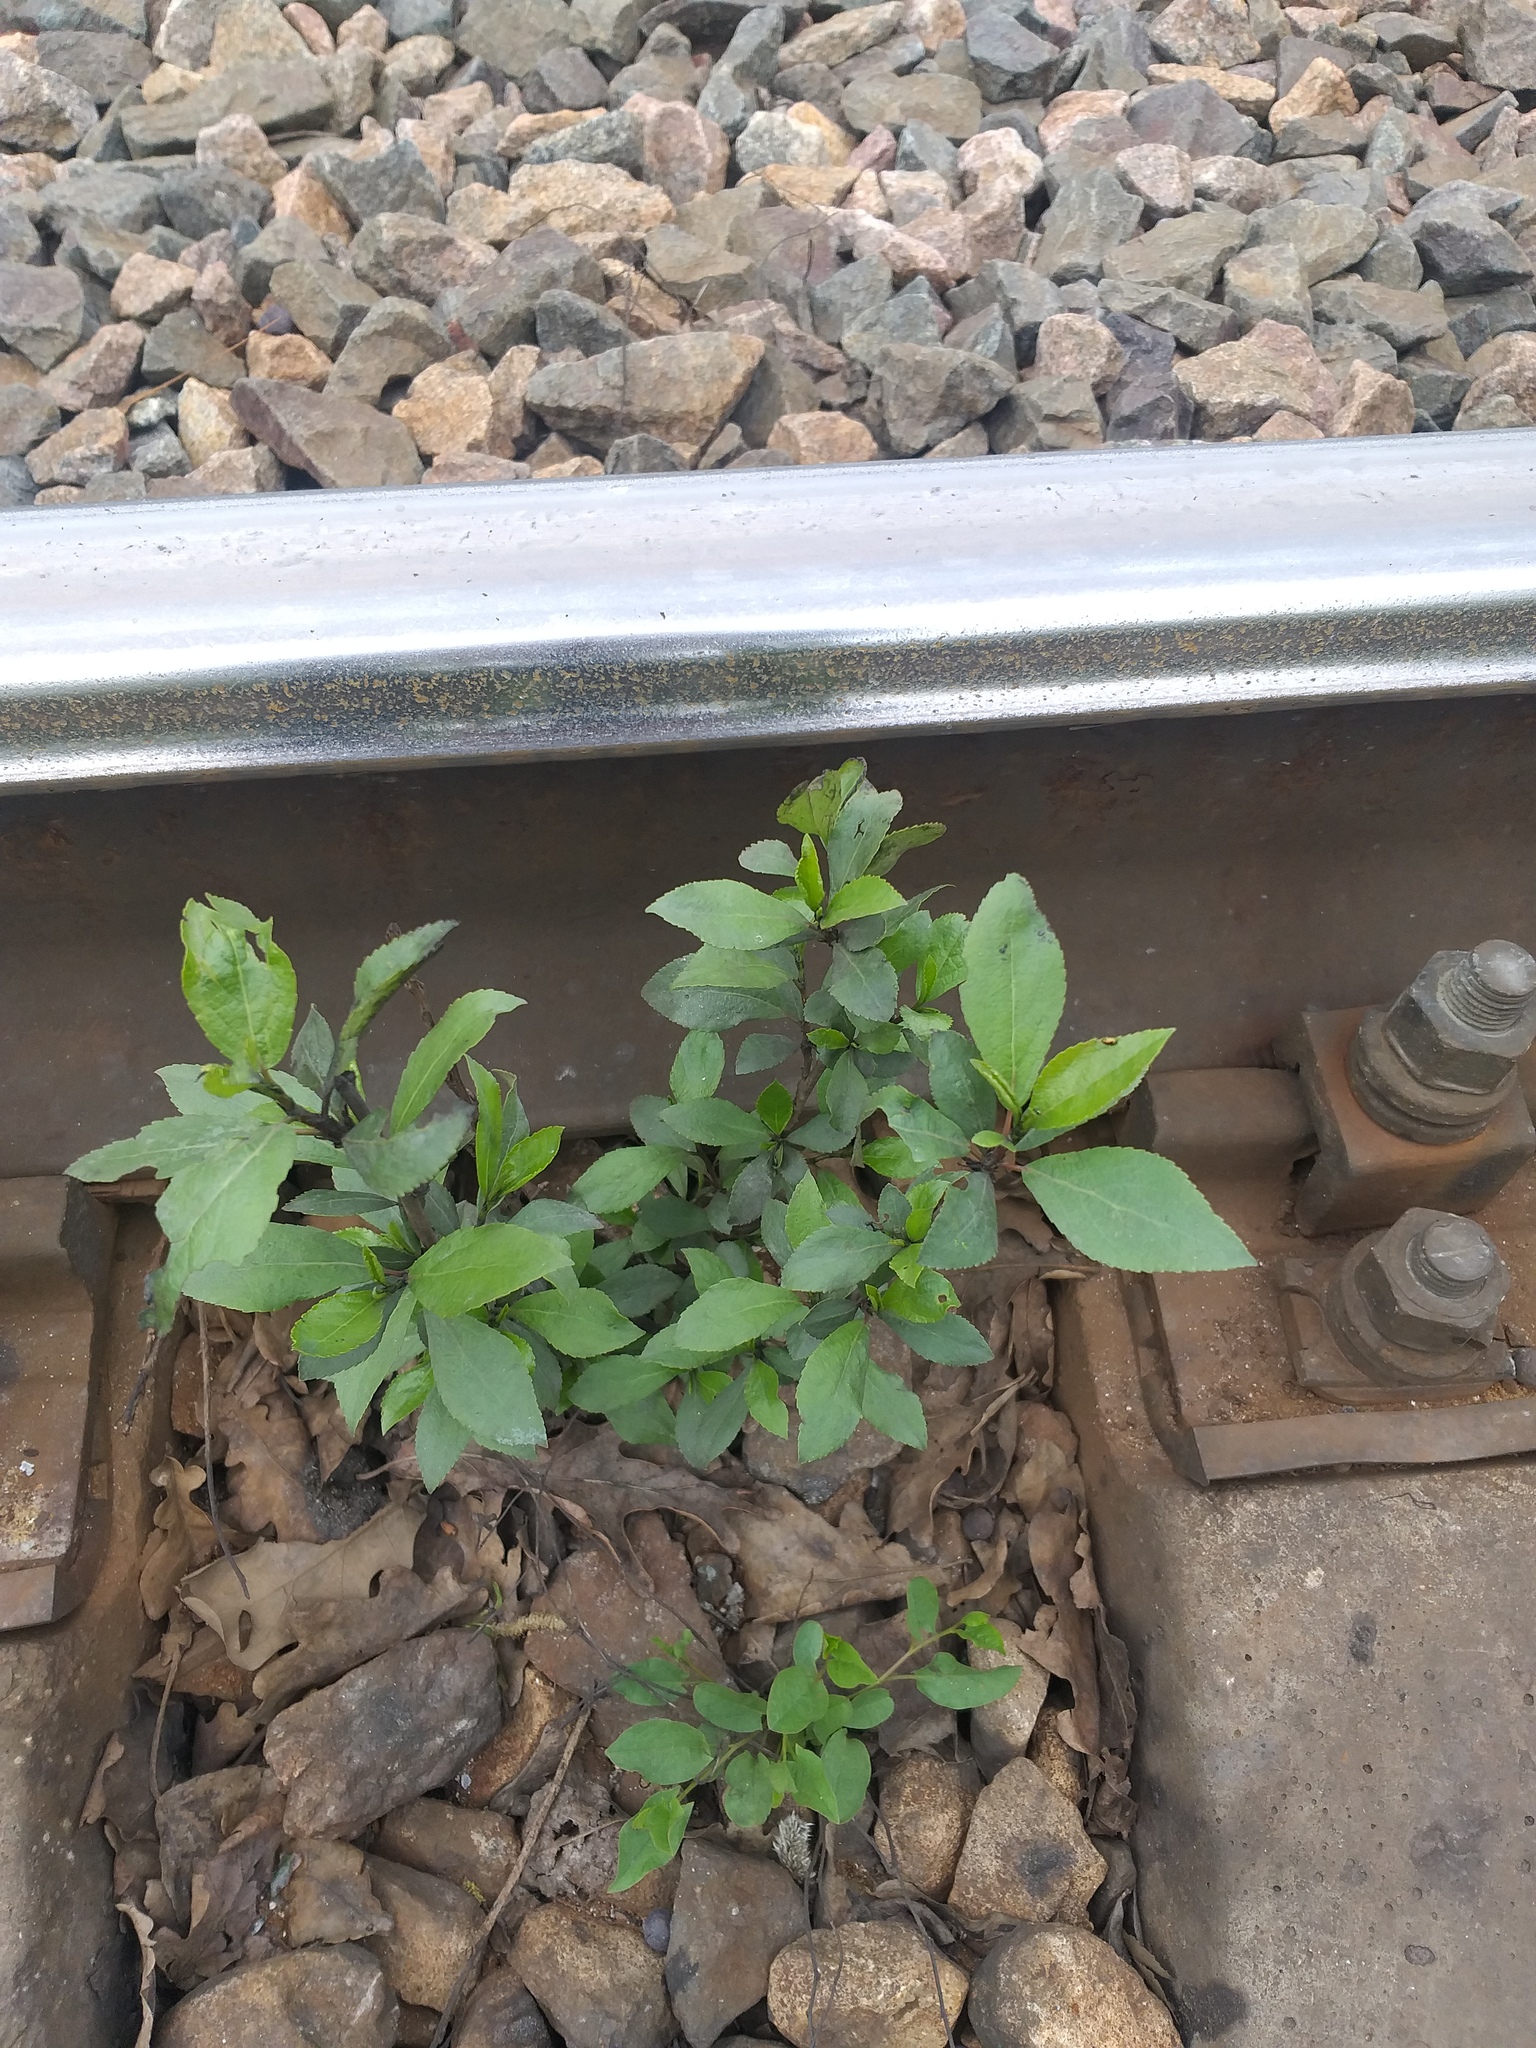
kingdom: Plantae
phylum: Tracheophyta
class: Magnoliopsida
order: Malpighiales
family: Salicaceae
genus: Populus
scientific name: Populus
